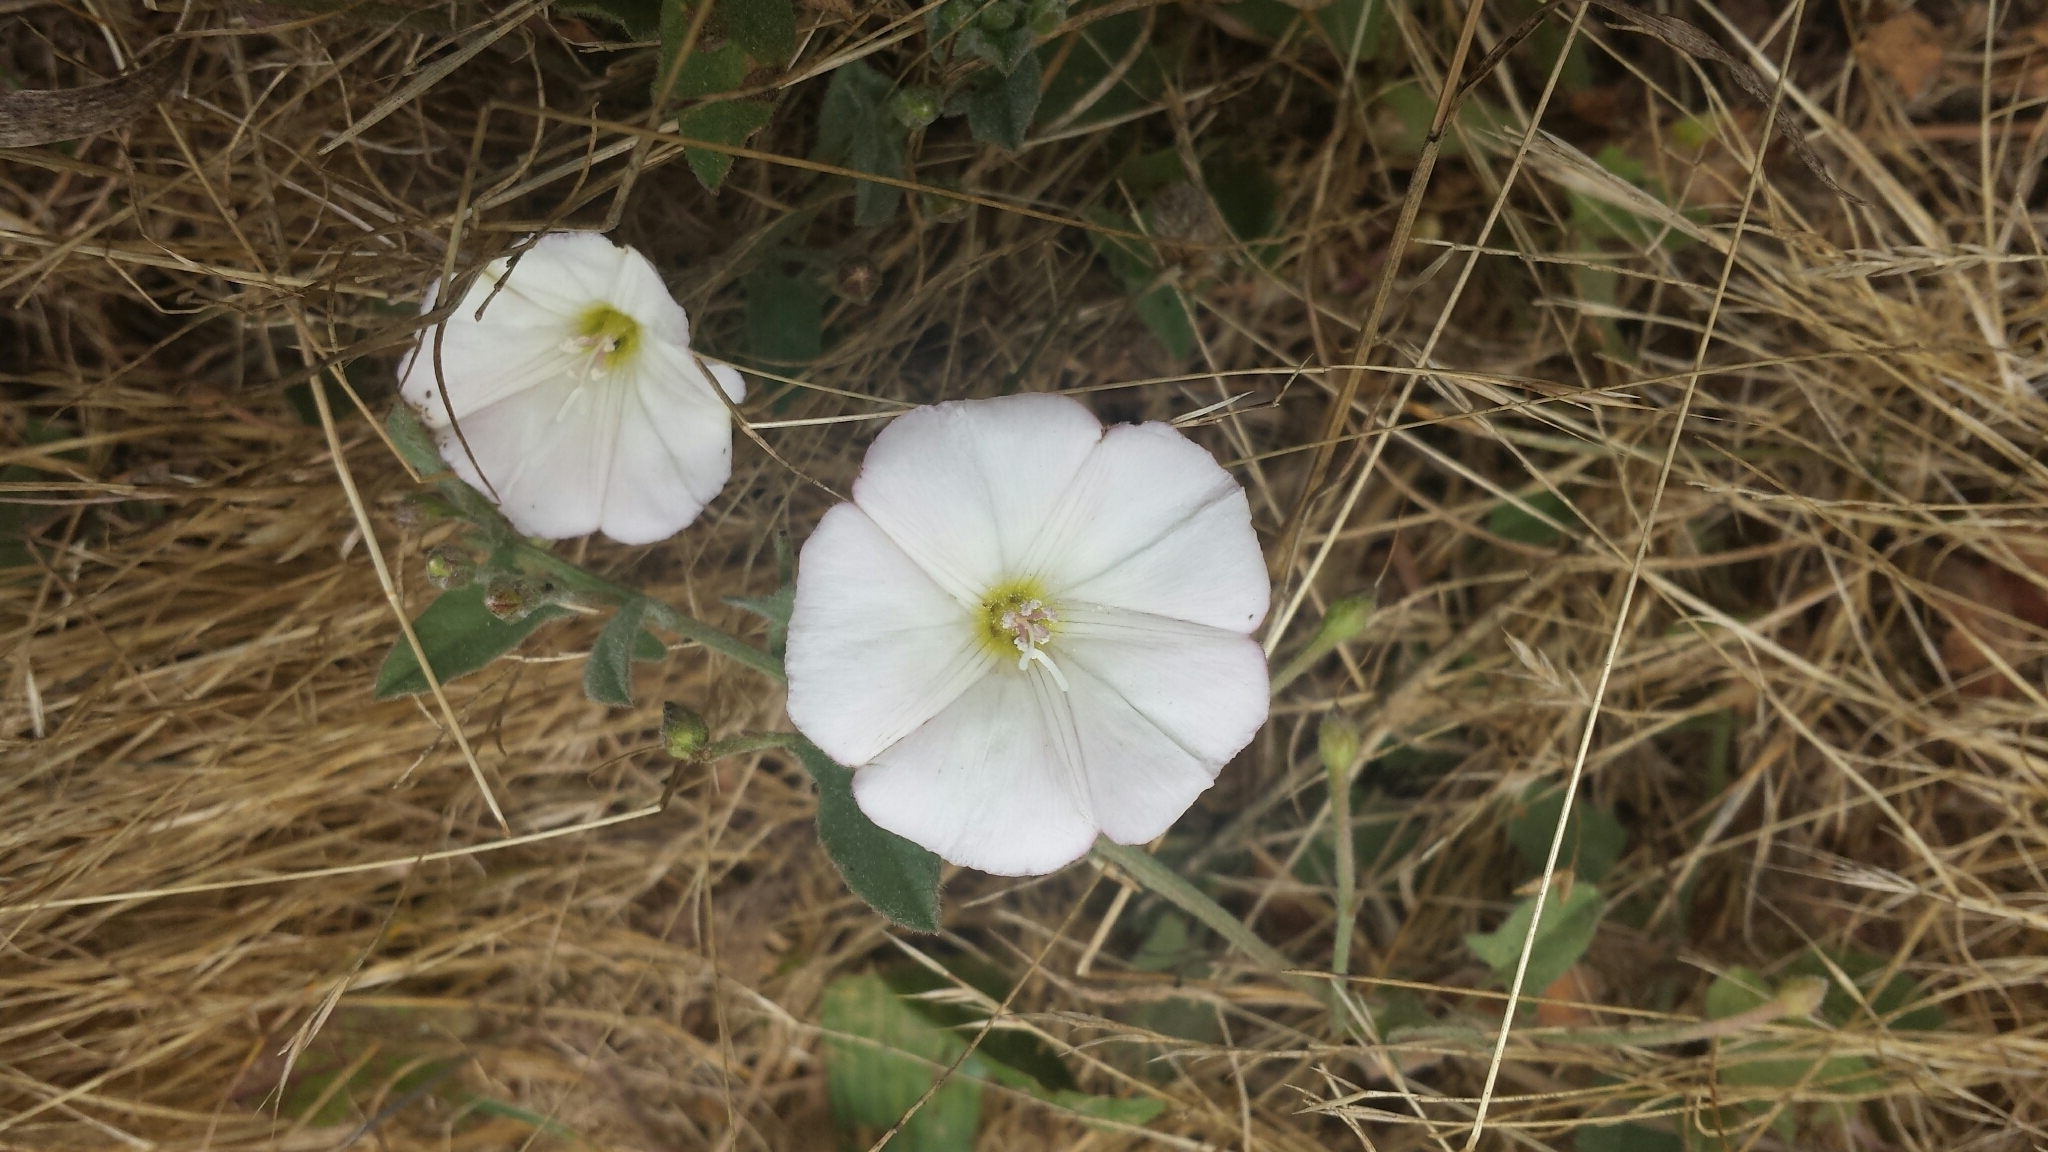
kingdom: Plantae
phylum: Tracheophyta
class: Magnoliopsida
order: Solanales
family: Convolvulaceae
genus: Convolvulus
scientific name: Convolvulus arvensis
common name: Field bindweed
